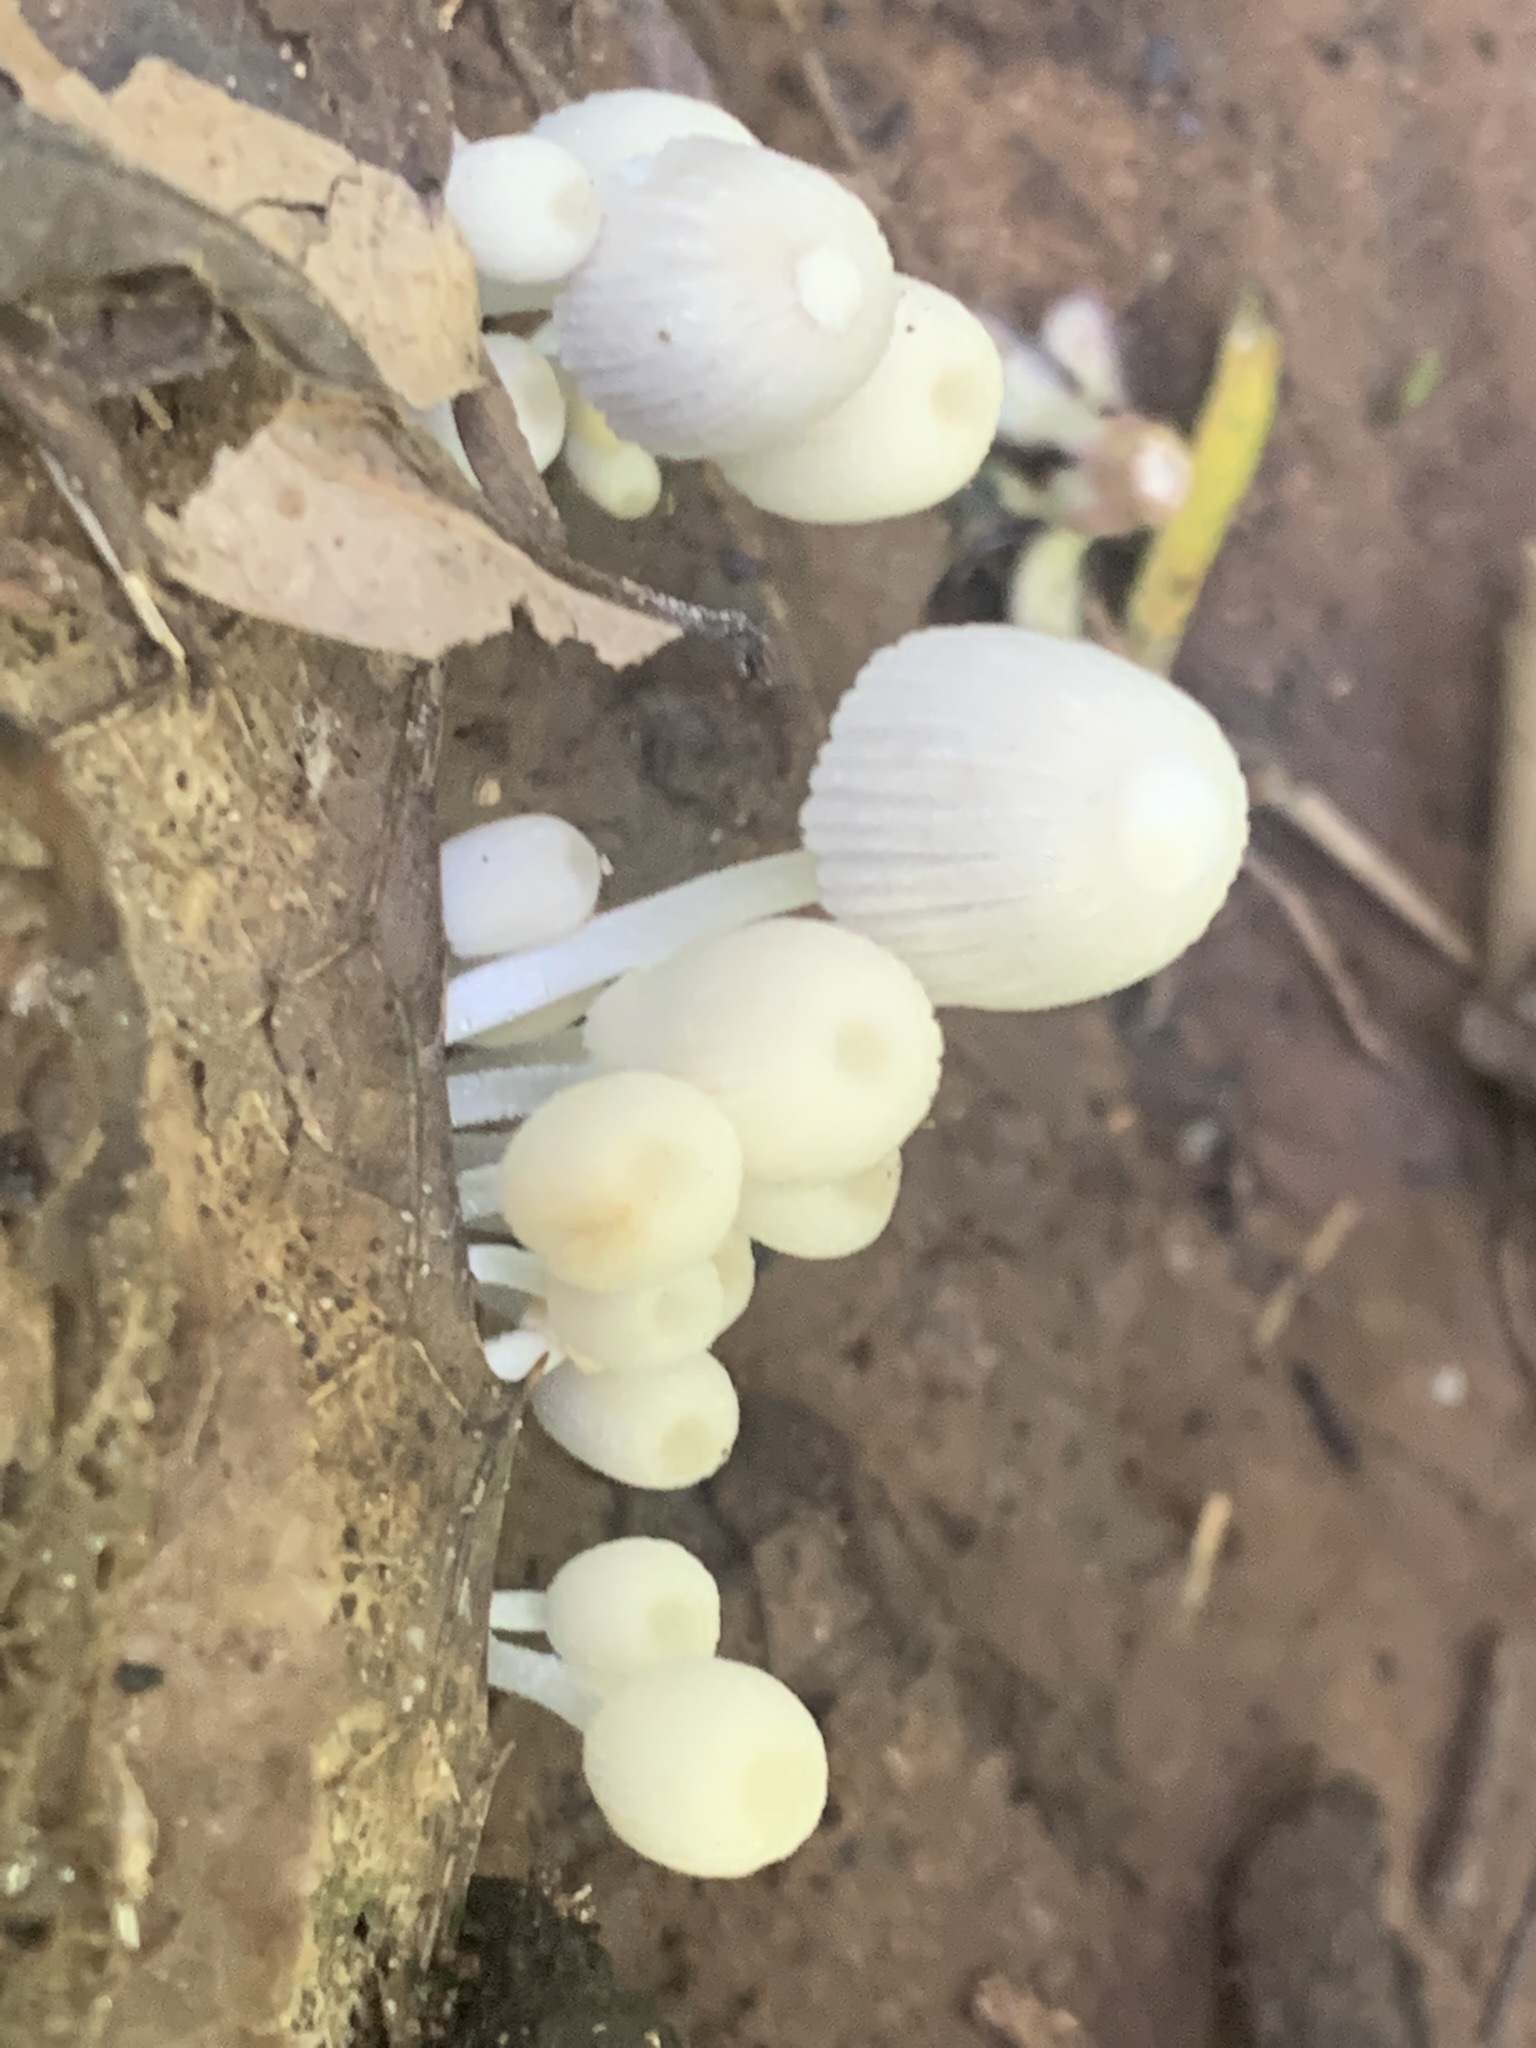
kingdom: Fungi
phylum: Basidiomycota
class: Agaricomycetes
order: Agaricales
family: Psathyrellaceae
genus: Coprinellus
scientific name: Coprinellus disseminatus
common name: Fairies' bonnets
